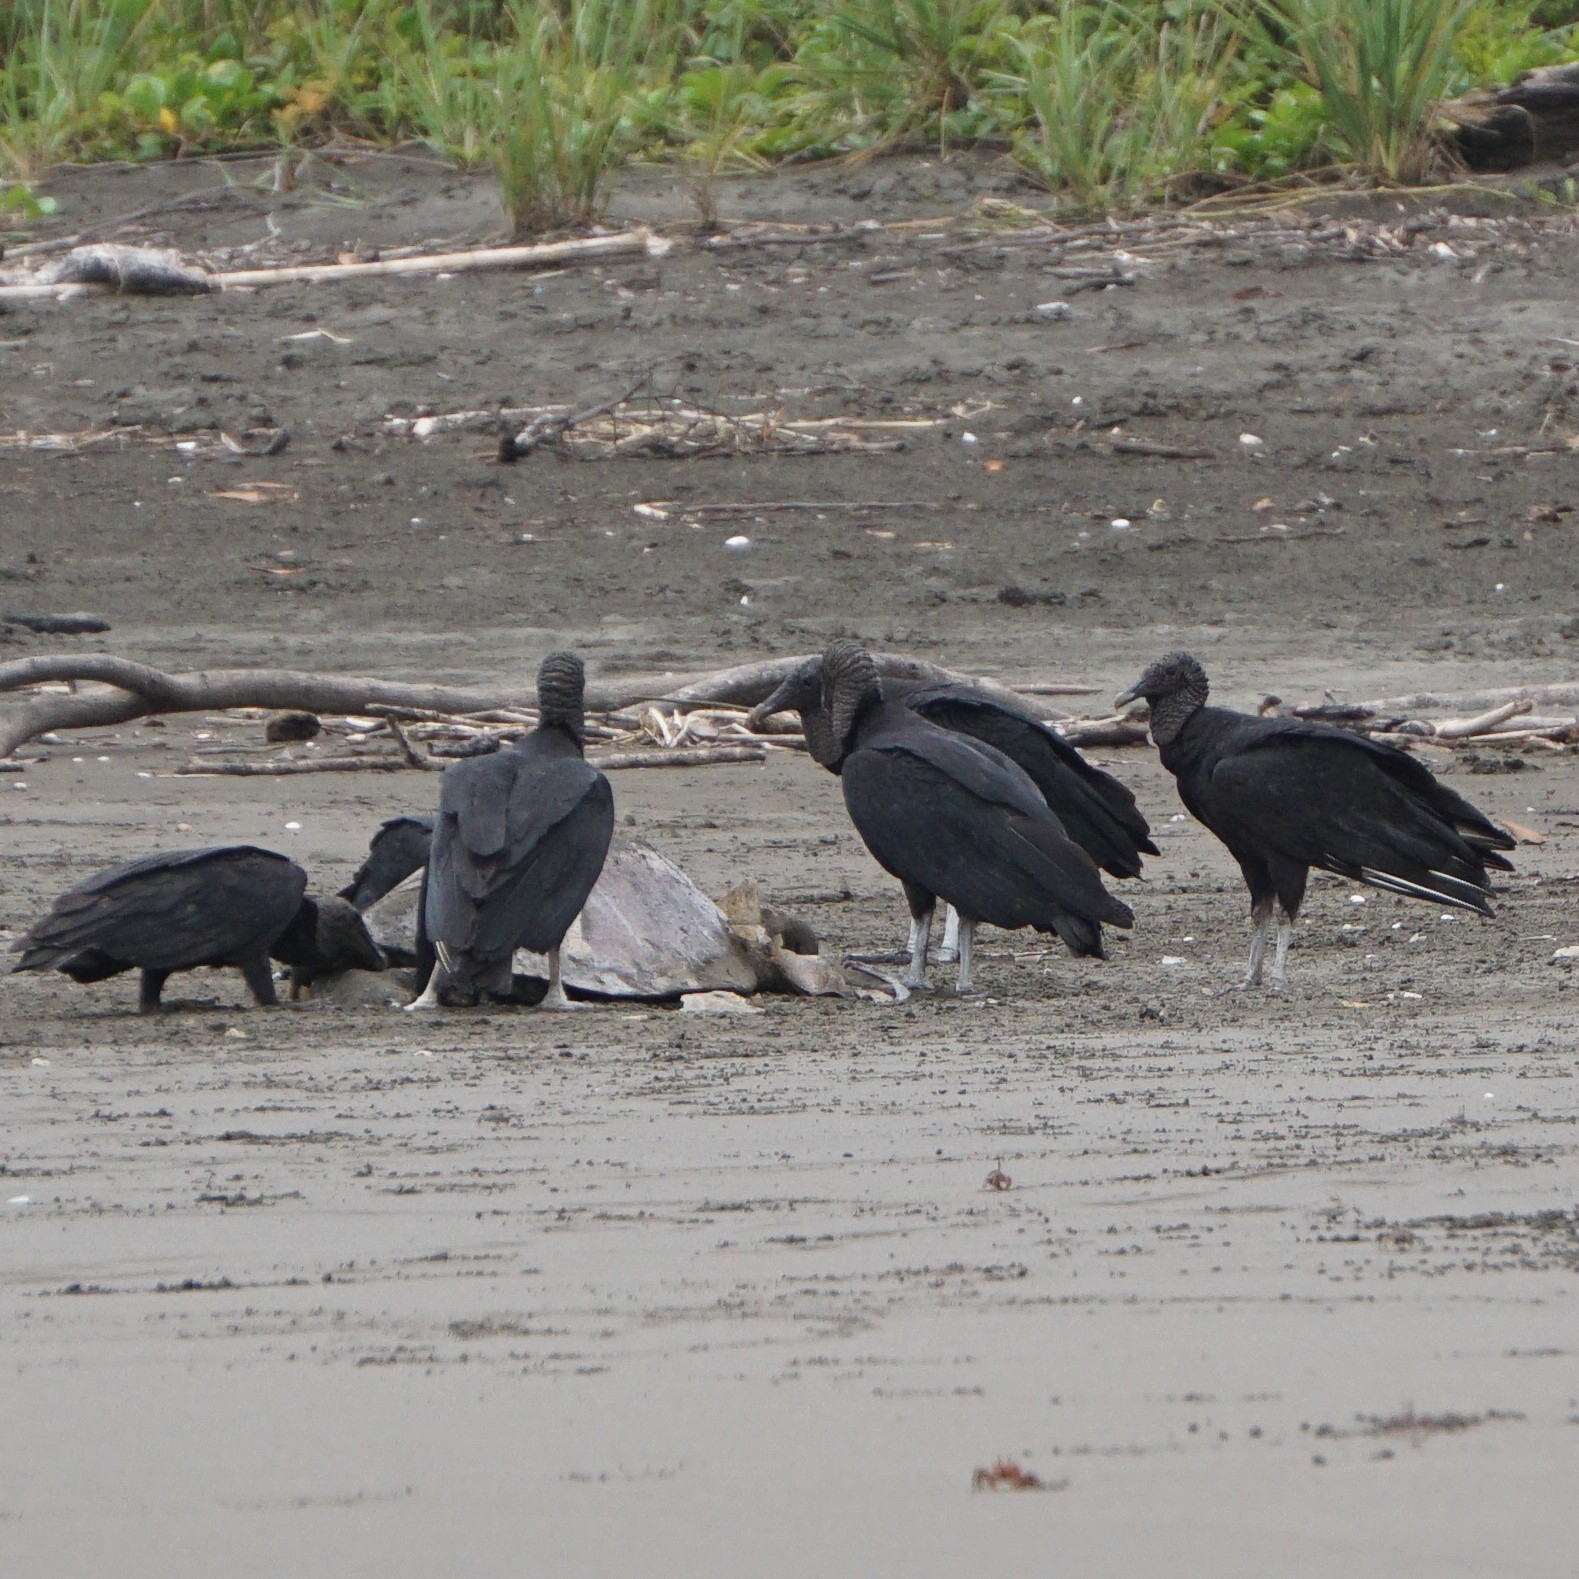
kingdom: Animalia
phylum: Chordata
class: Aves
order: Accipitriformes
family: Cathartidae
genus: Coragyps
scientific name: Coragyps atratus
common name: Black vulture
